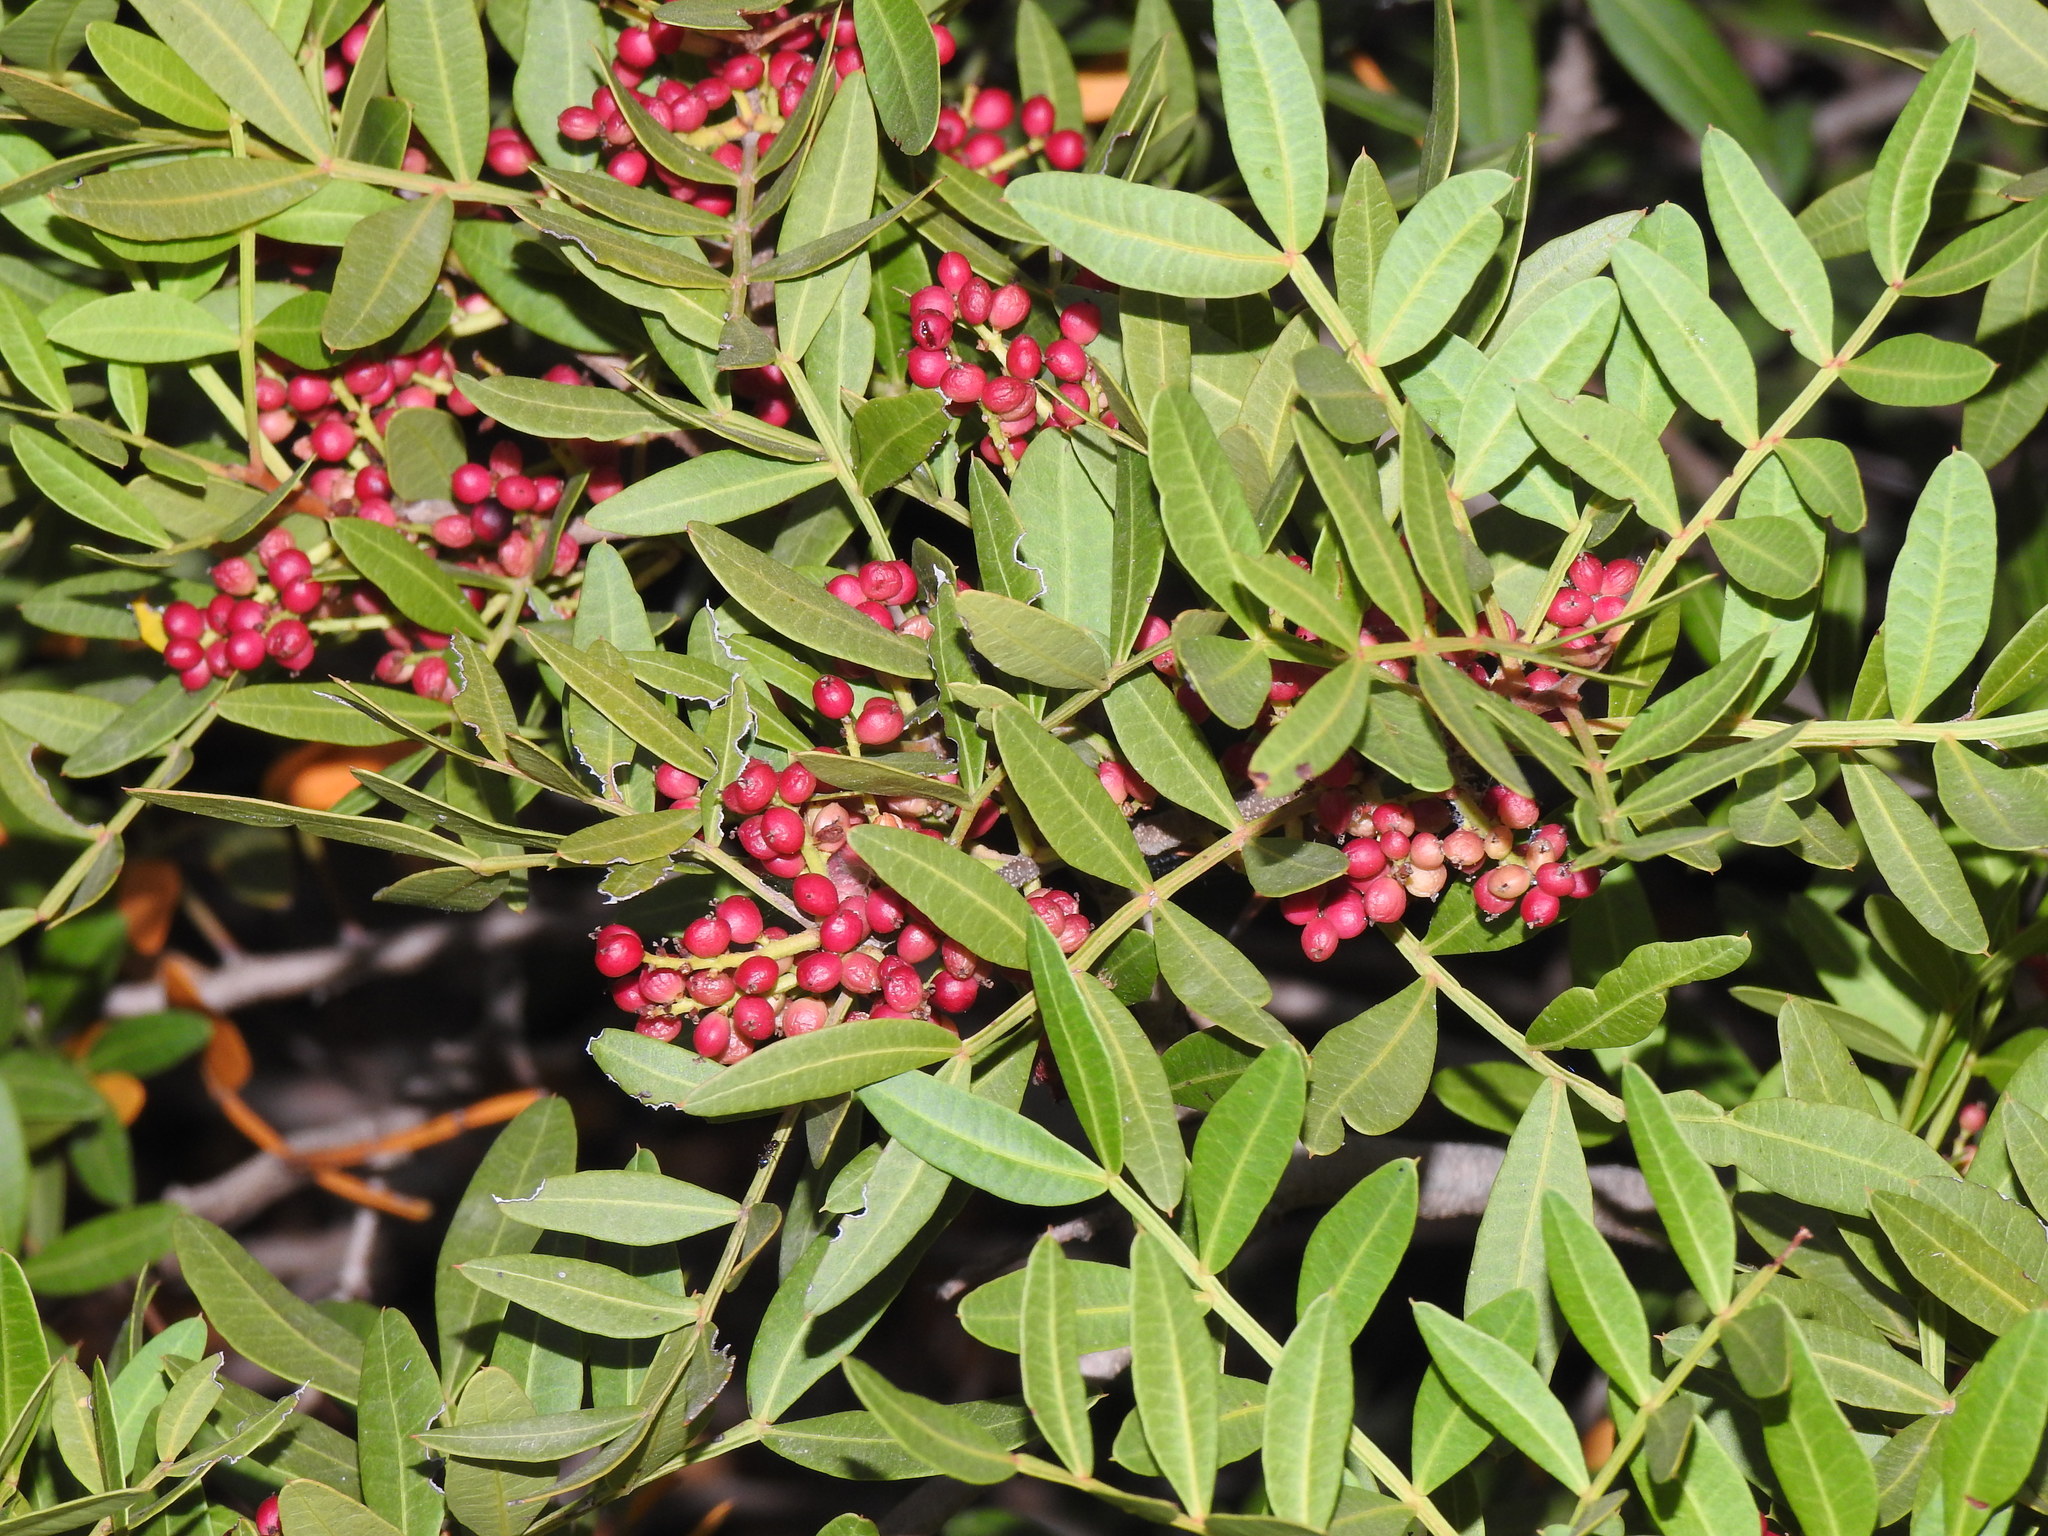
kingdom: Plantae
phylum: Tracheophyta
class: Magnoliopsida
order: Sapindales
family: Anacardiaceae
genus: Pistacia
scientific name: Pistacia lentiscus
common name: Lentisk
